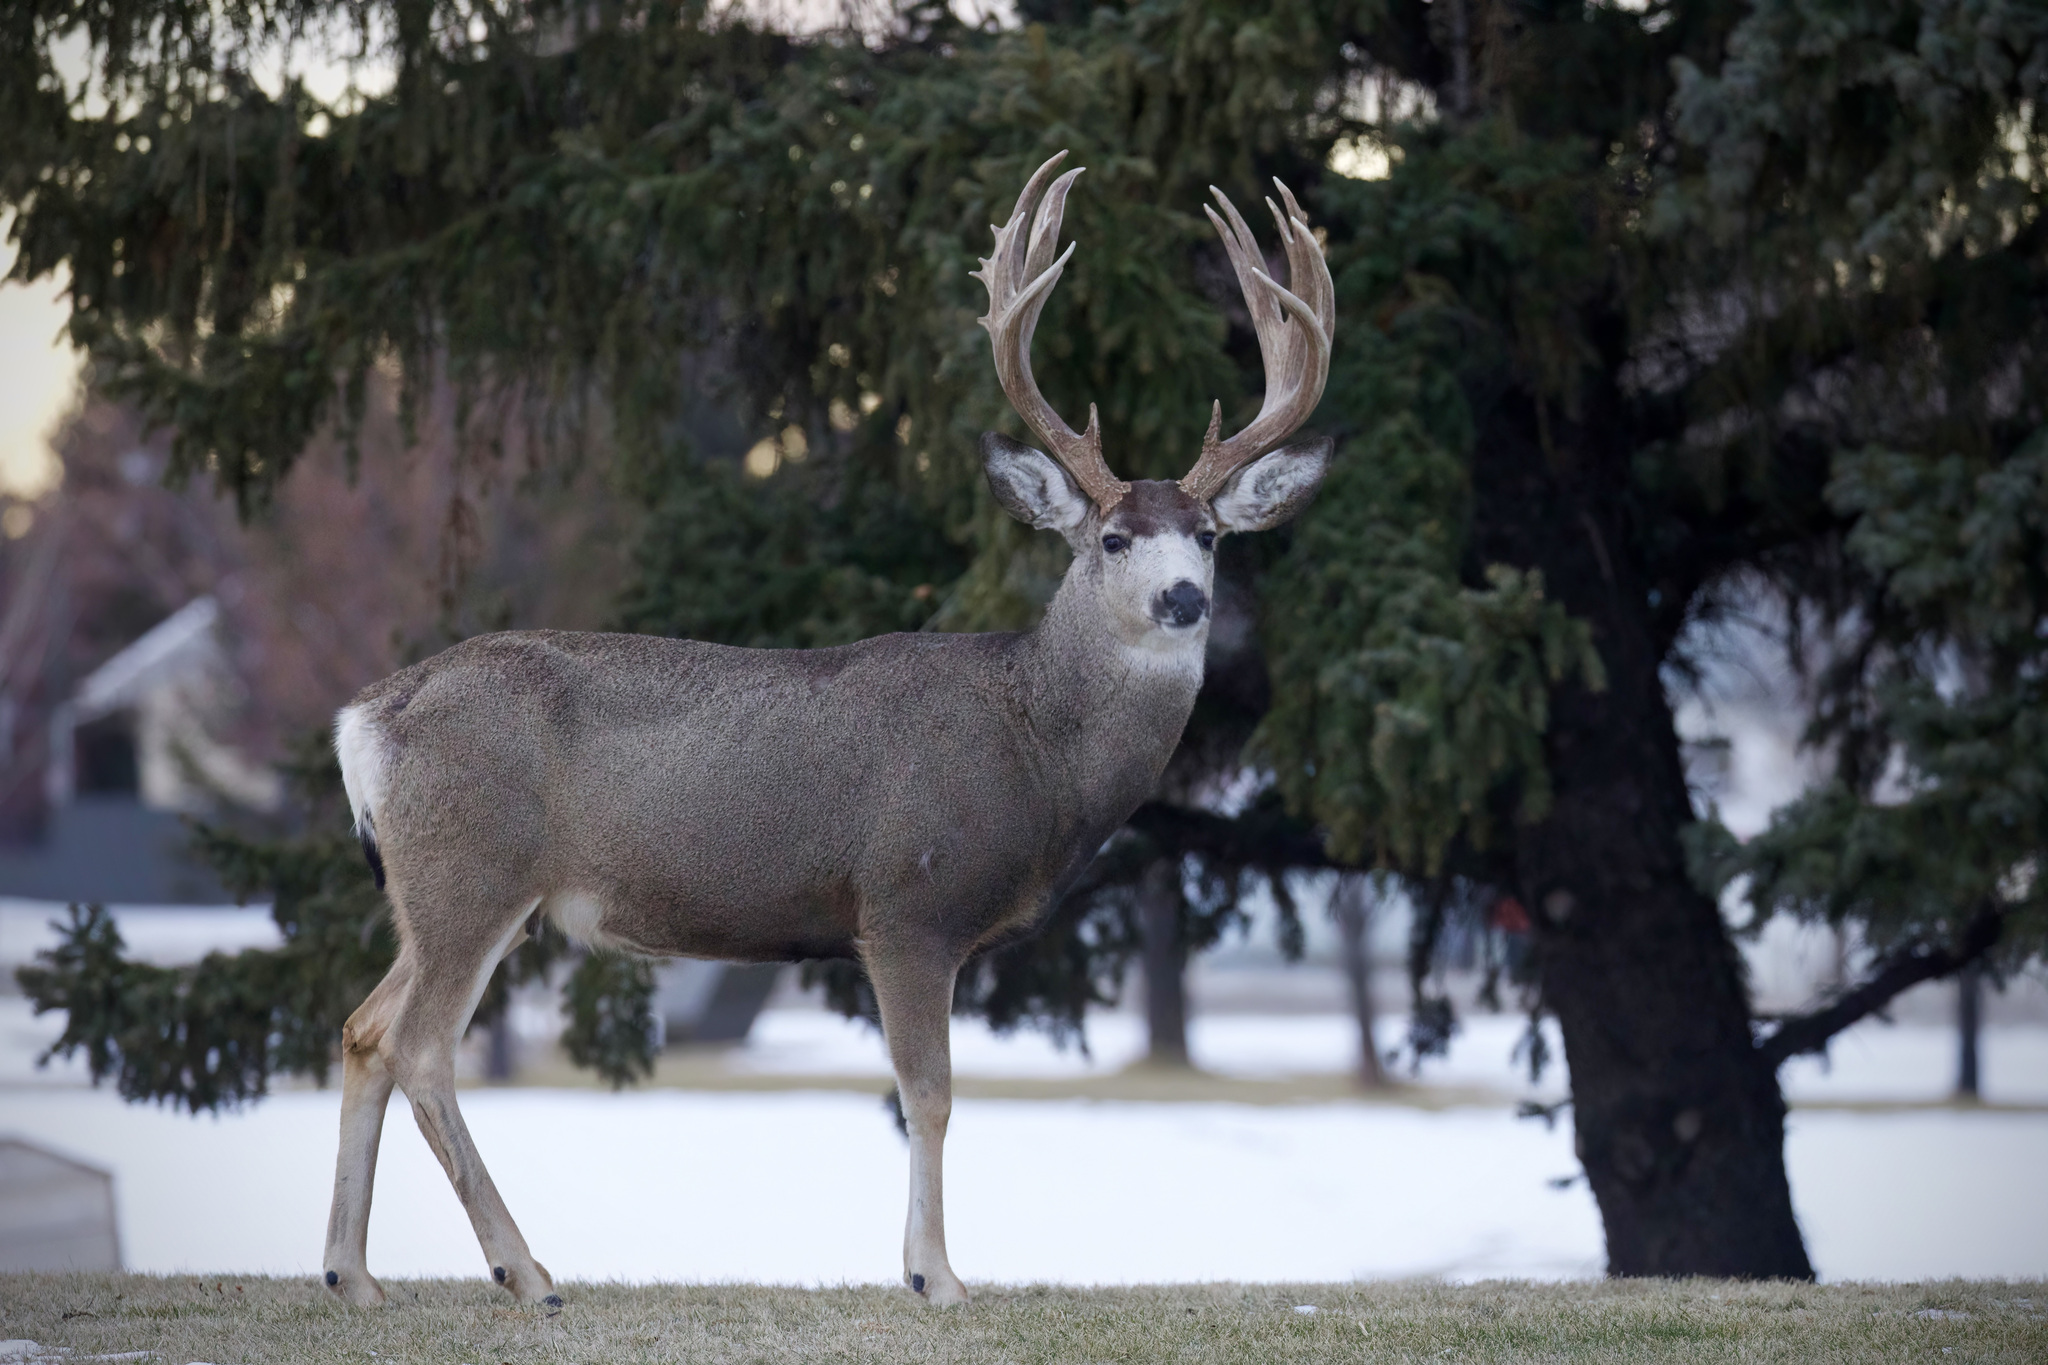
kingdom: Animalia
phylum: Chordata
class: Mammalia
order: Artiodactyla
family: Cervidae
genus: Odocoileus
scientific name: Odocoileus hemionus
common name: Mule deer
